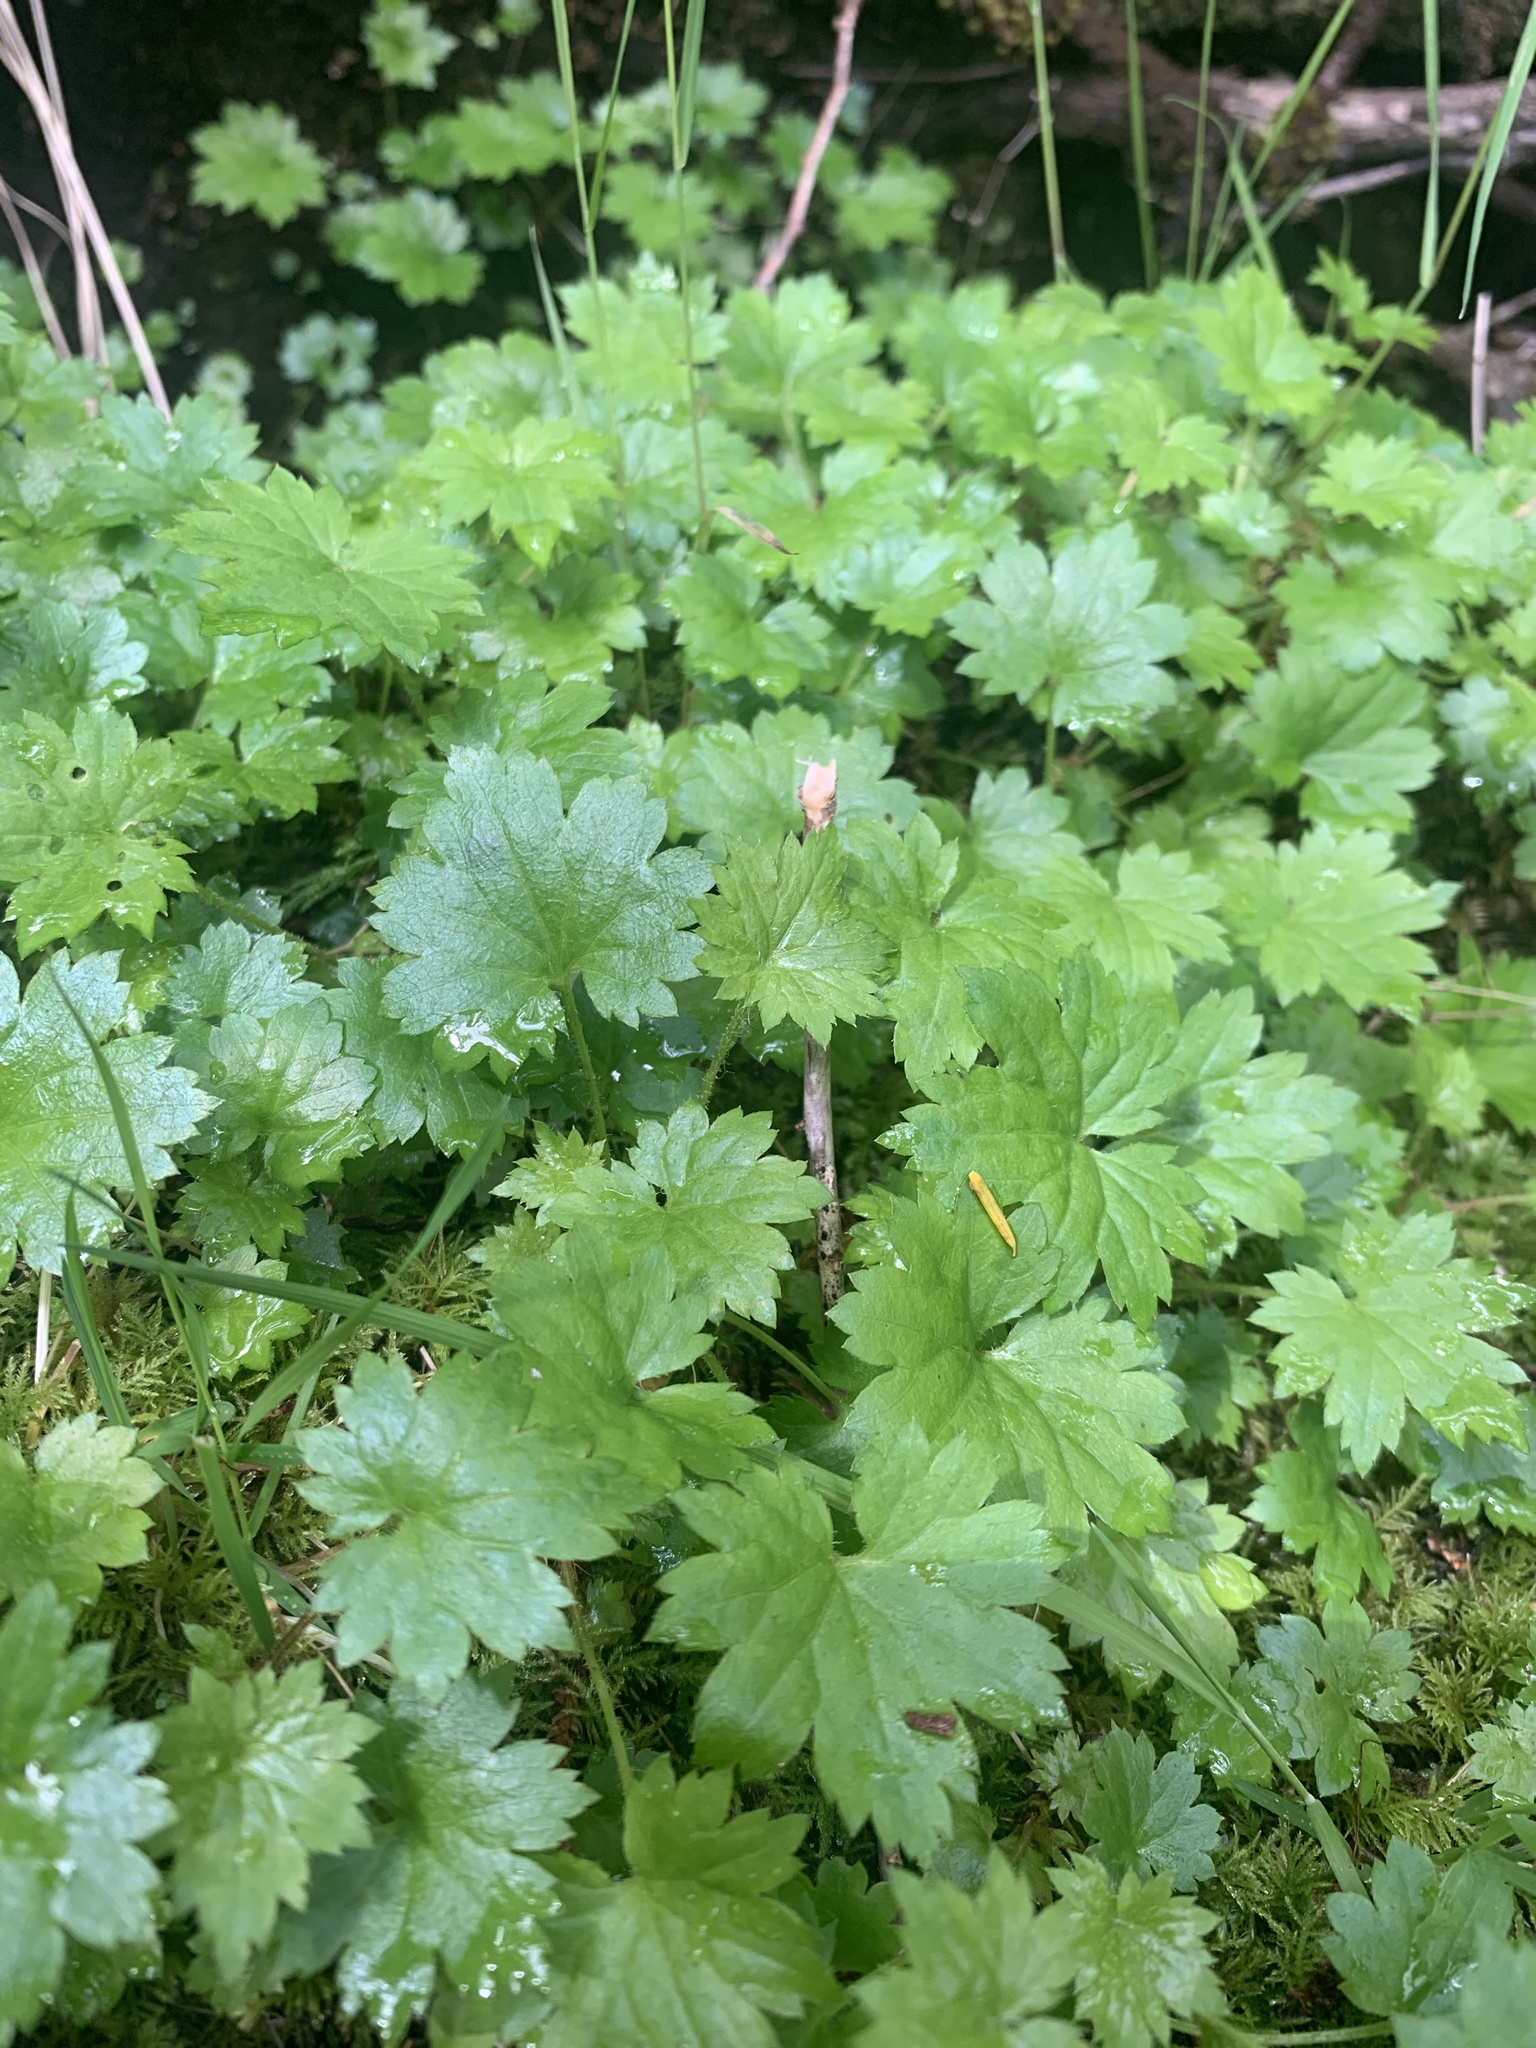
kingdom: Plantae
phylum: Tracheophyta
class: Magnoliopsida
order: Saxifragales
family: Saxifragaceae
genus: Boykinia
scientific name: Boykinia occidentalis
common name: Coast boykinia
